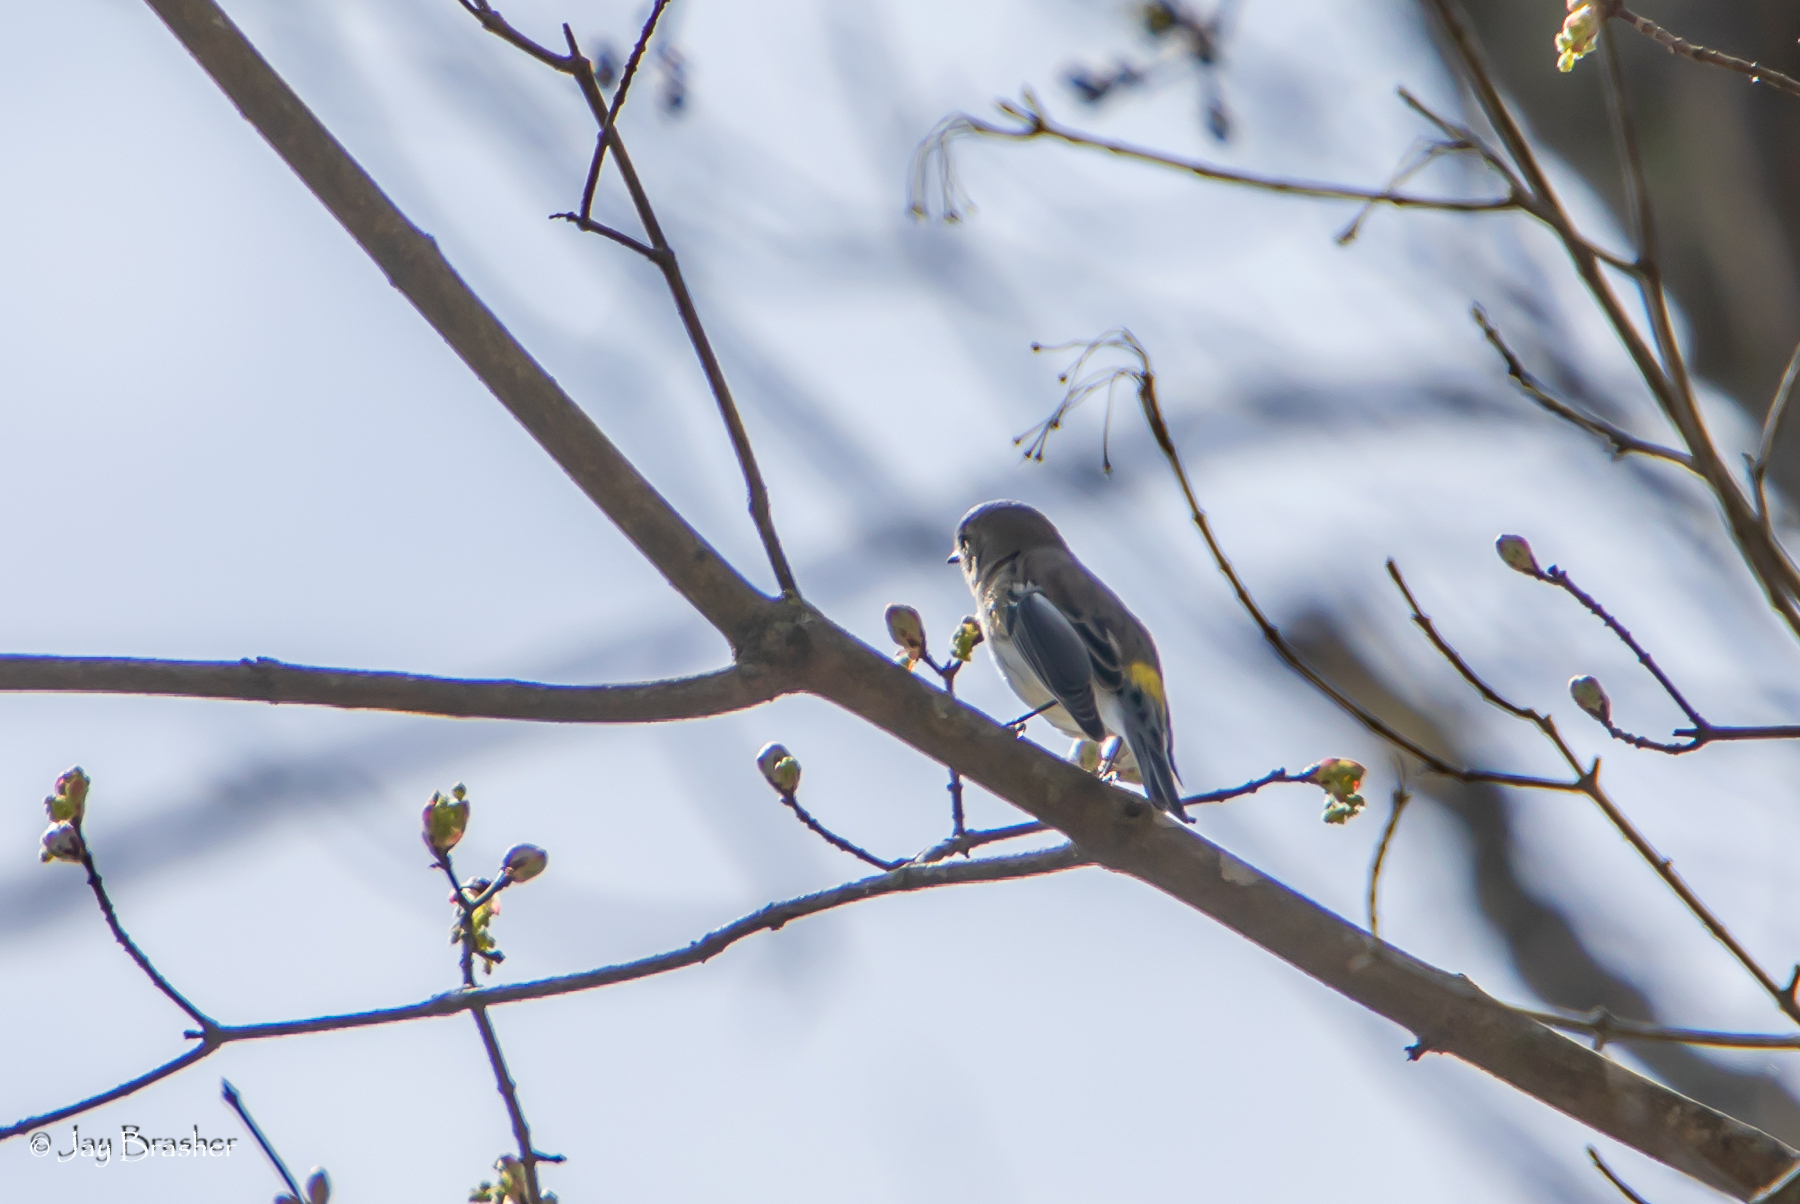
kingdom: Animalia
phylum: Chordata
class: Aves
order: Passeriformes
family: Parulidae
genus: Setophaga
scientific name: Setophaga coronata
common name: Myrtle warbler
